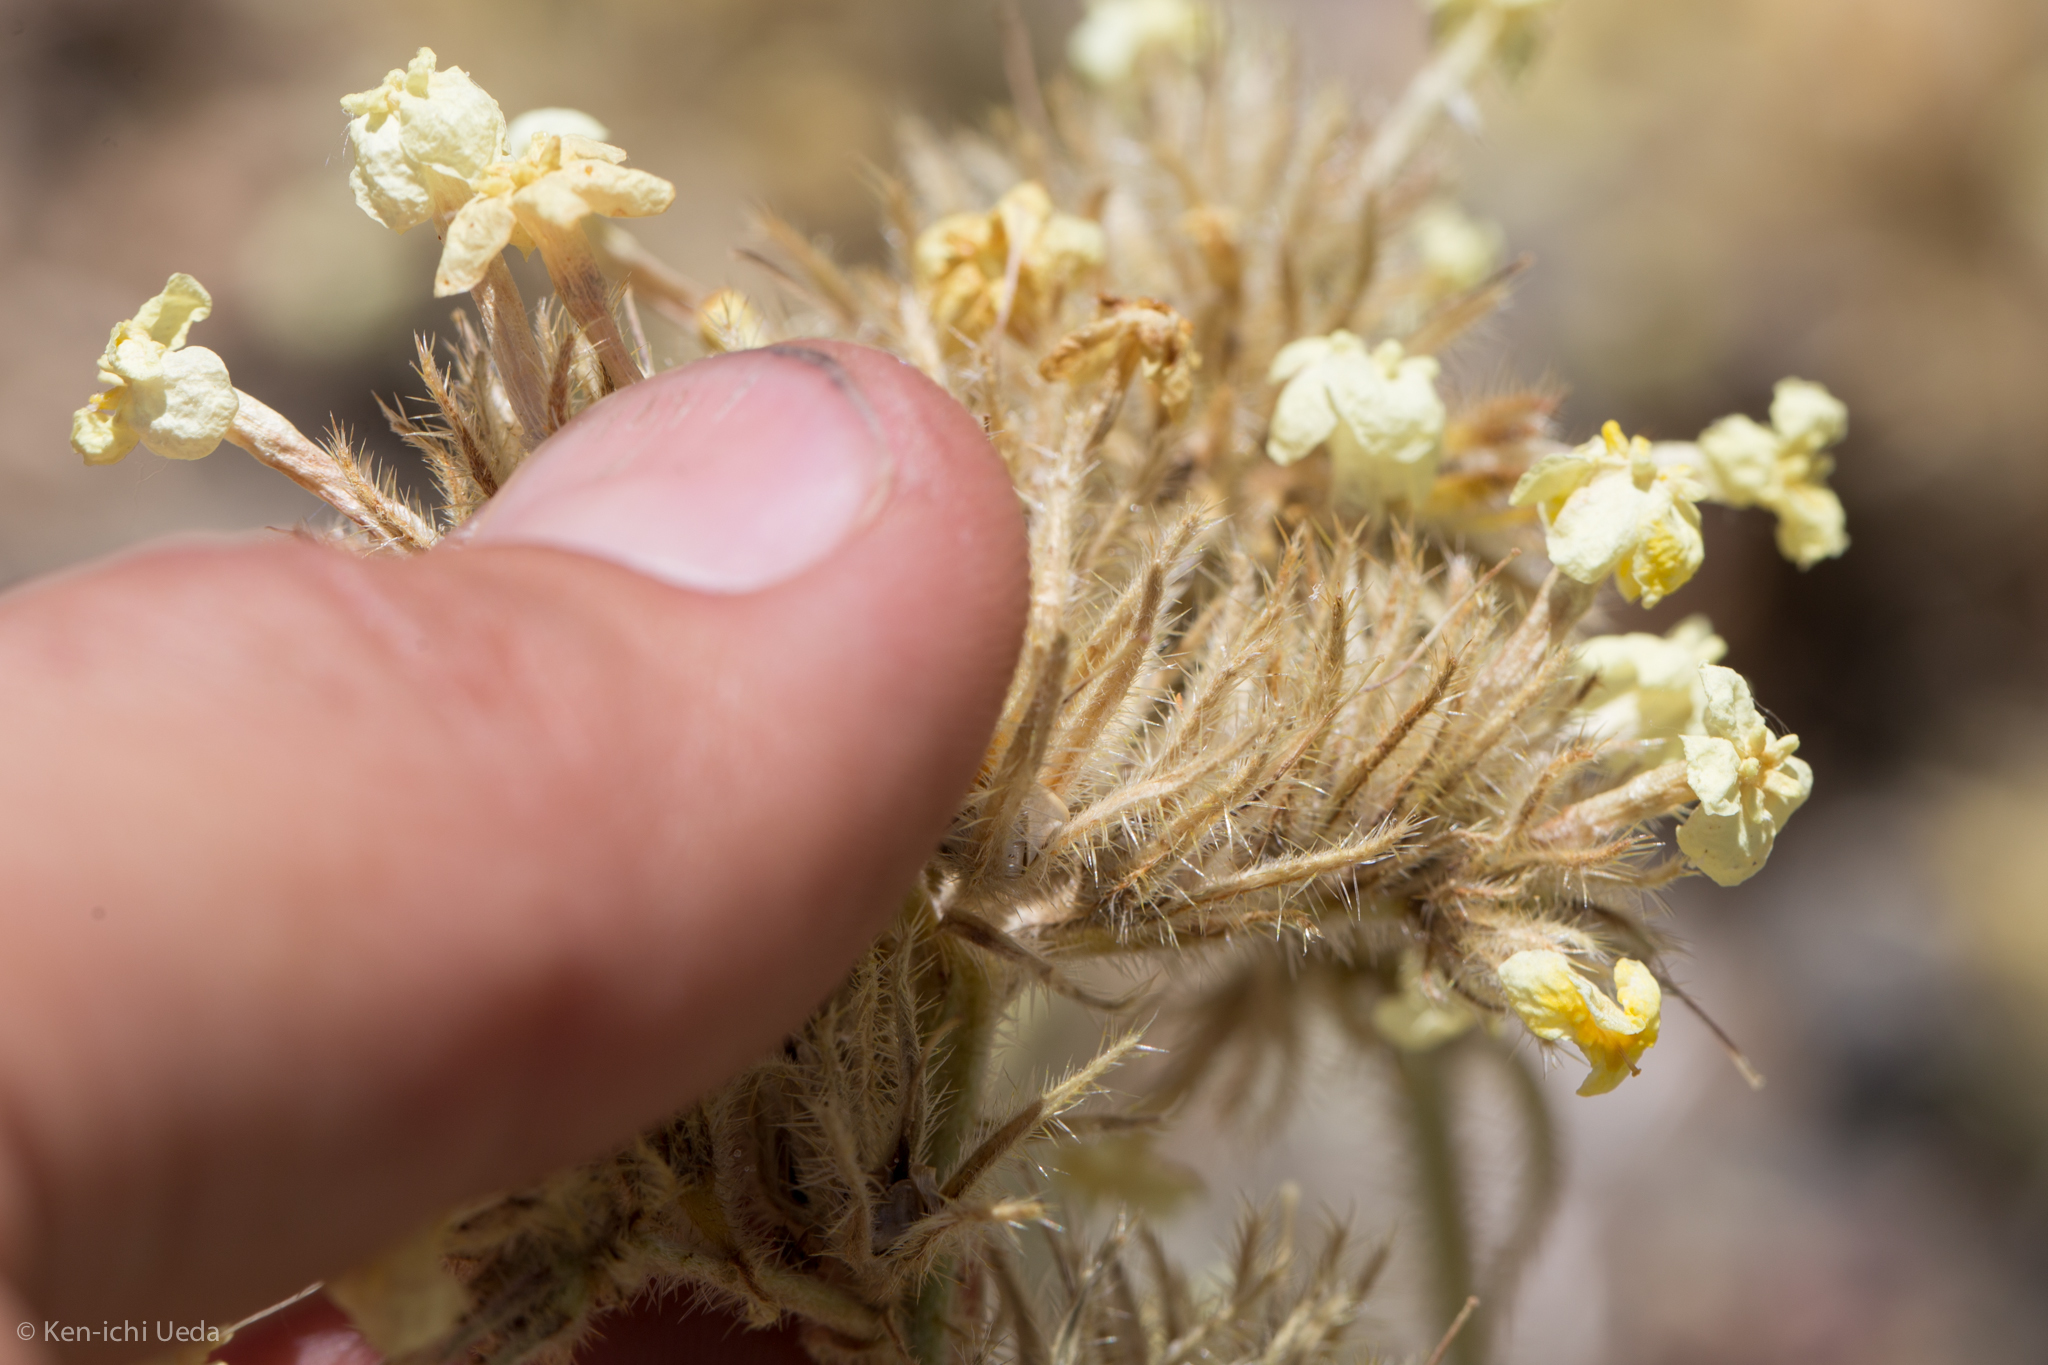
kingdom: Plantae
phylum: Tracheophyta
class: Magnoliopsida
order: Boraginales
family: Boraginaceae
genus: Oreocarya
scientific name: Oreocarya confertiflora
